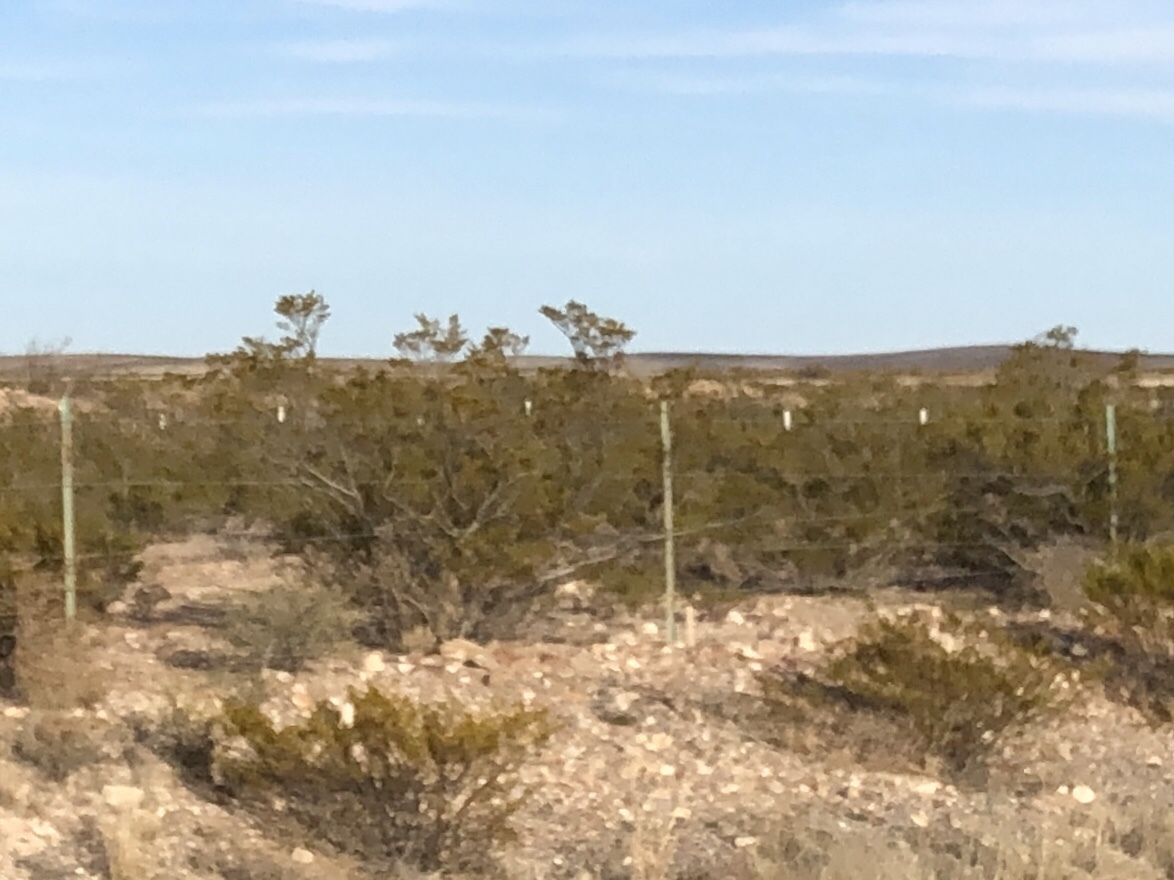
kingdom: Plantae
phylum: Tracheophyta
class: Magnoliopsida
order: Zygophyllales
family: Zygophyllaceae
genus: Larrea
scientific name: Larrea tridentata
